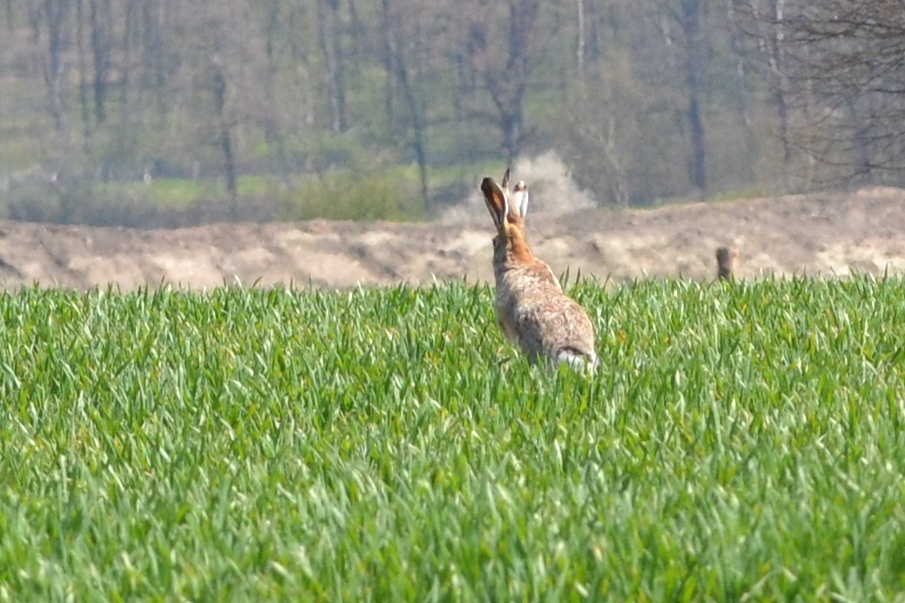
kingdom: Animalia
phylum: Chordata
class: Mammalia
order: Lagomorpha
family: Leporidae
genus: Lepus
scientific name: Lepus europaeus
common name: European hare
